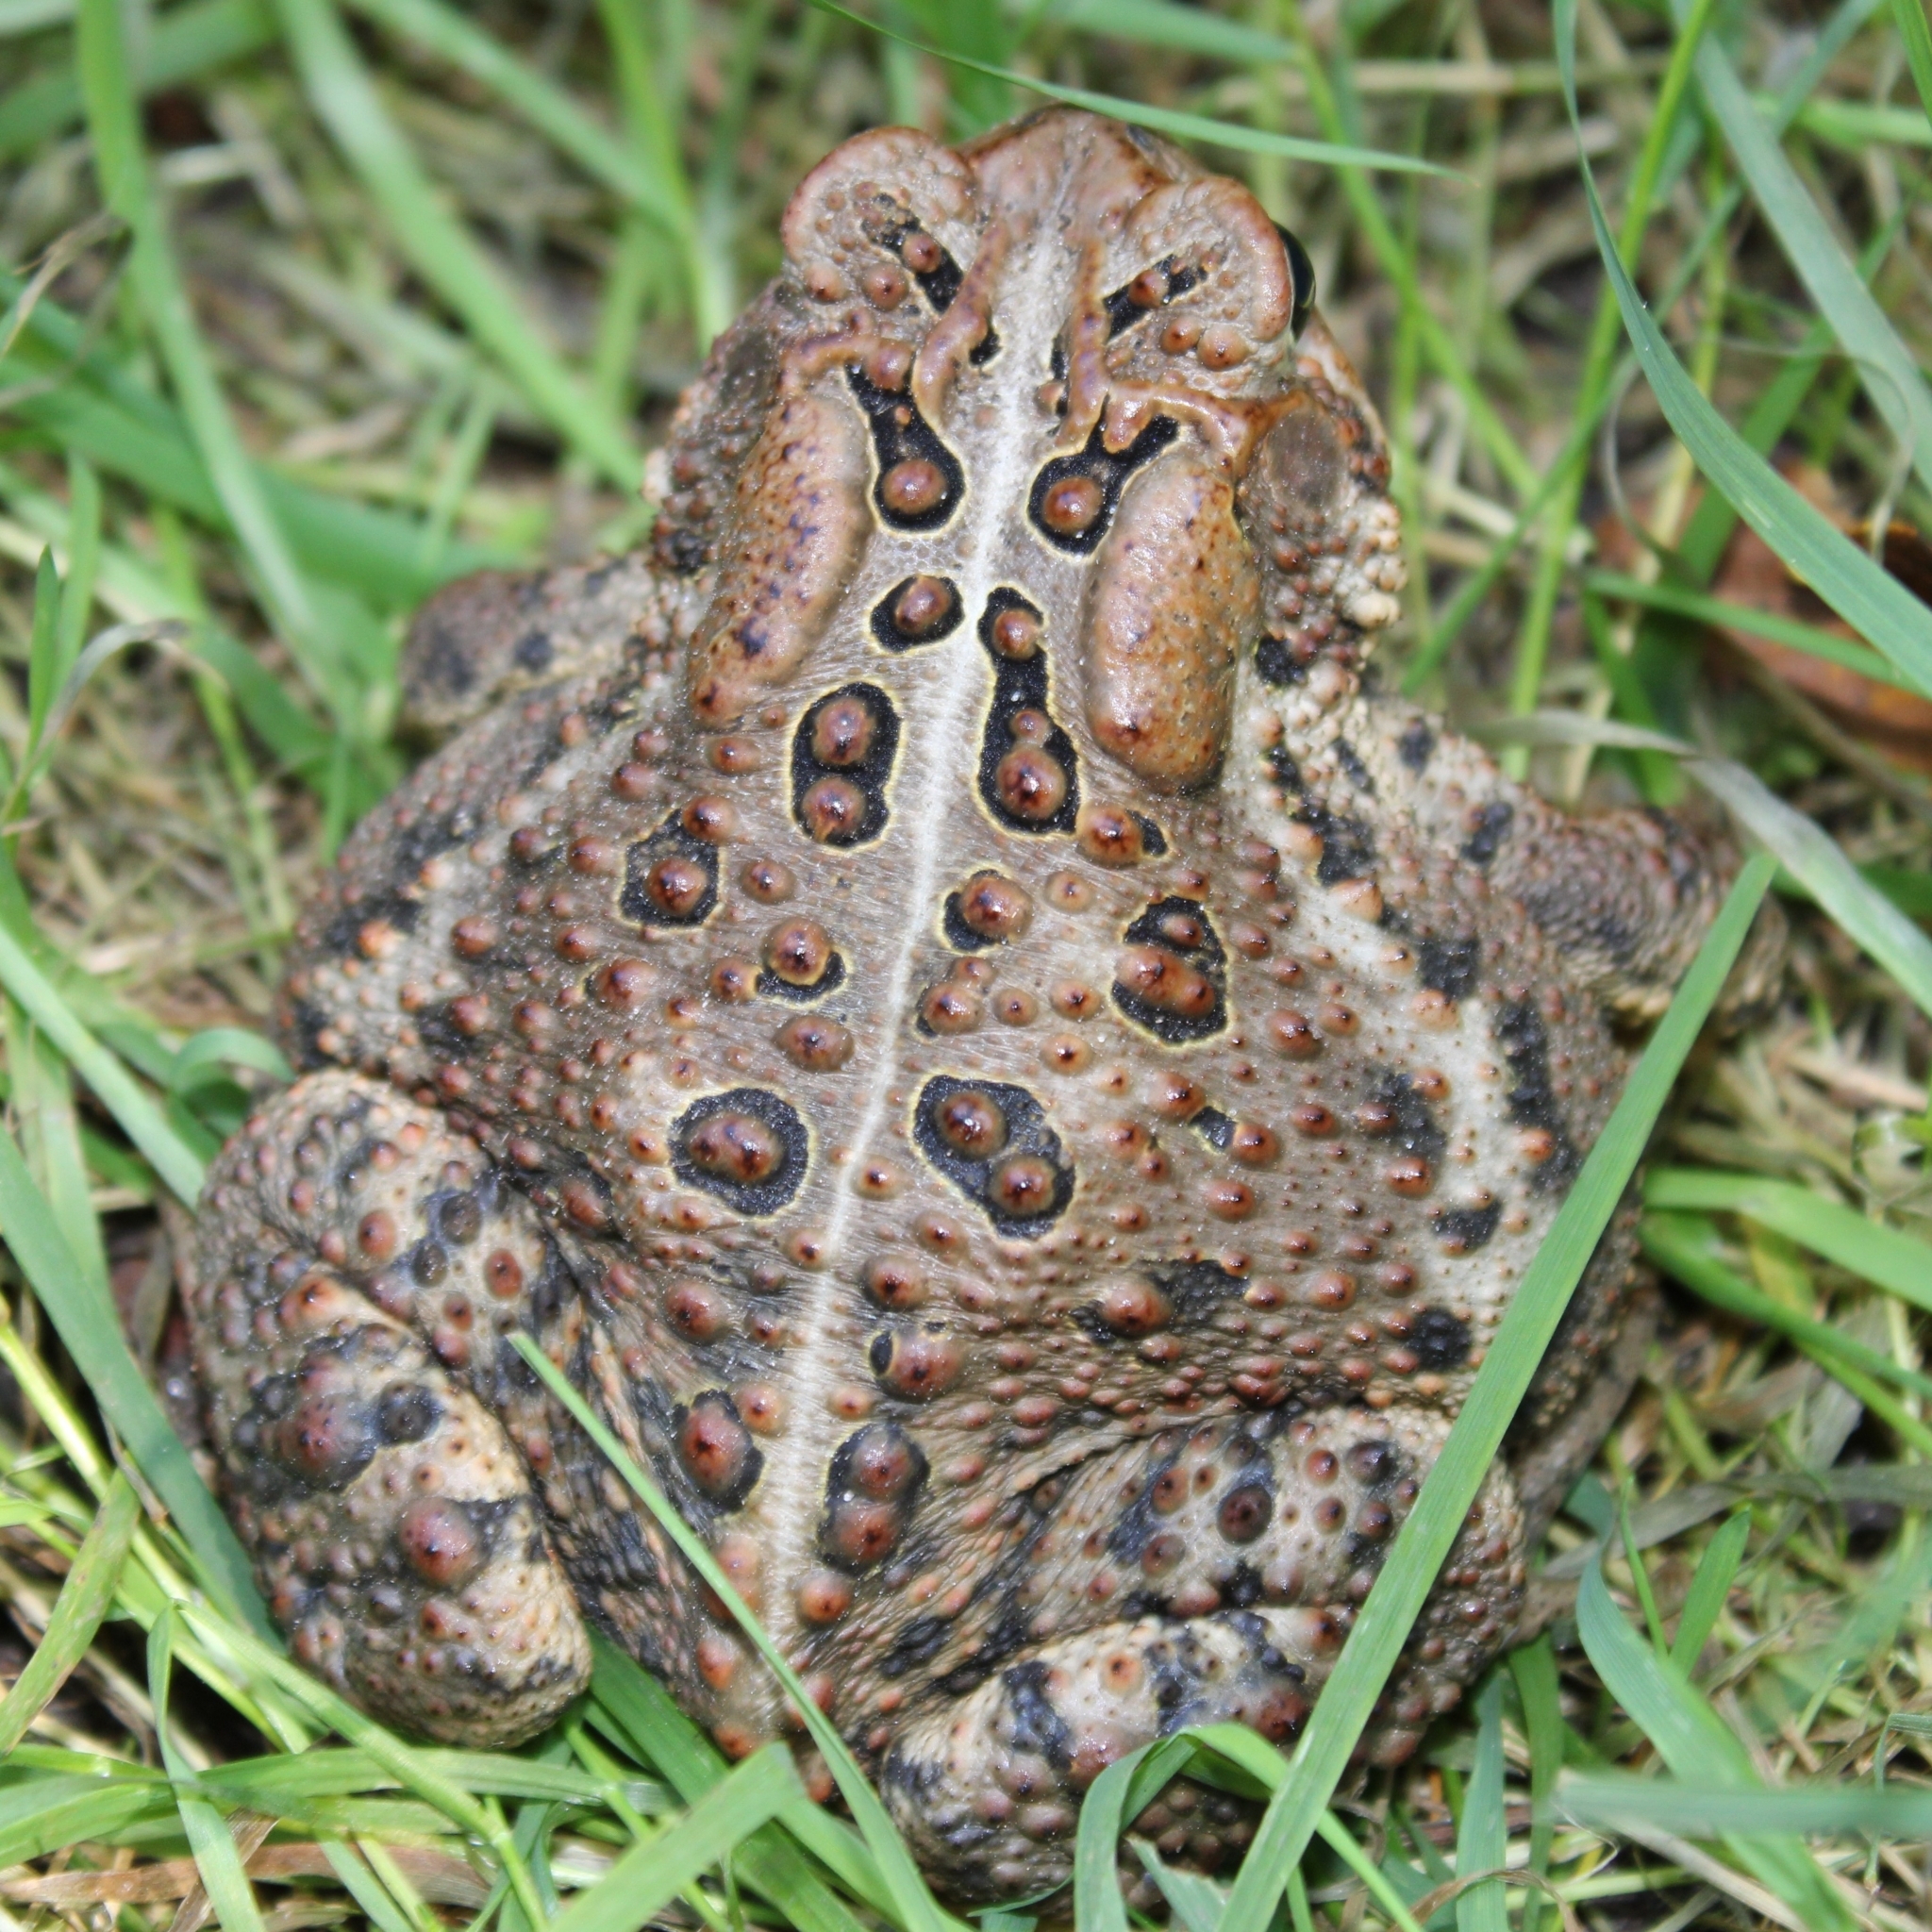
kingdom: Animalia
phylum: Chordata
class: Amphibia
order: Anura
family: Bufonidae
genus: Anaxyrus
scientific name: Anaxyrus americanus
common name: American toad
